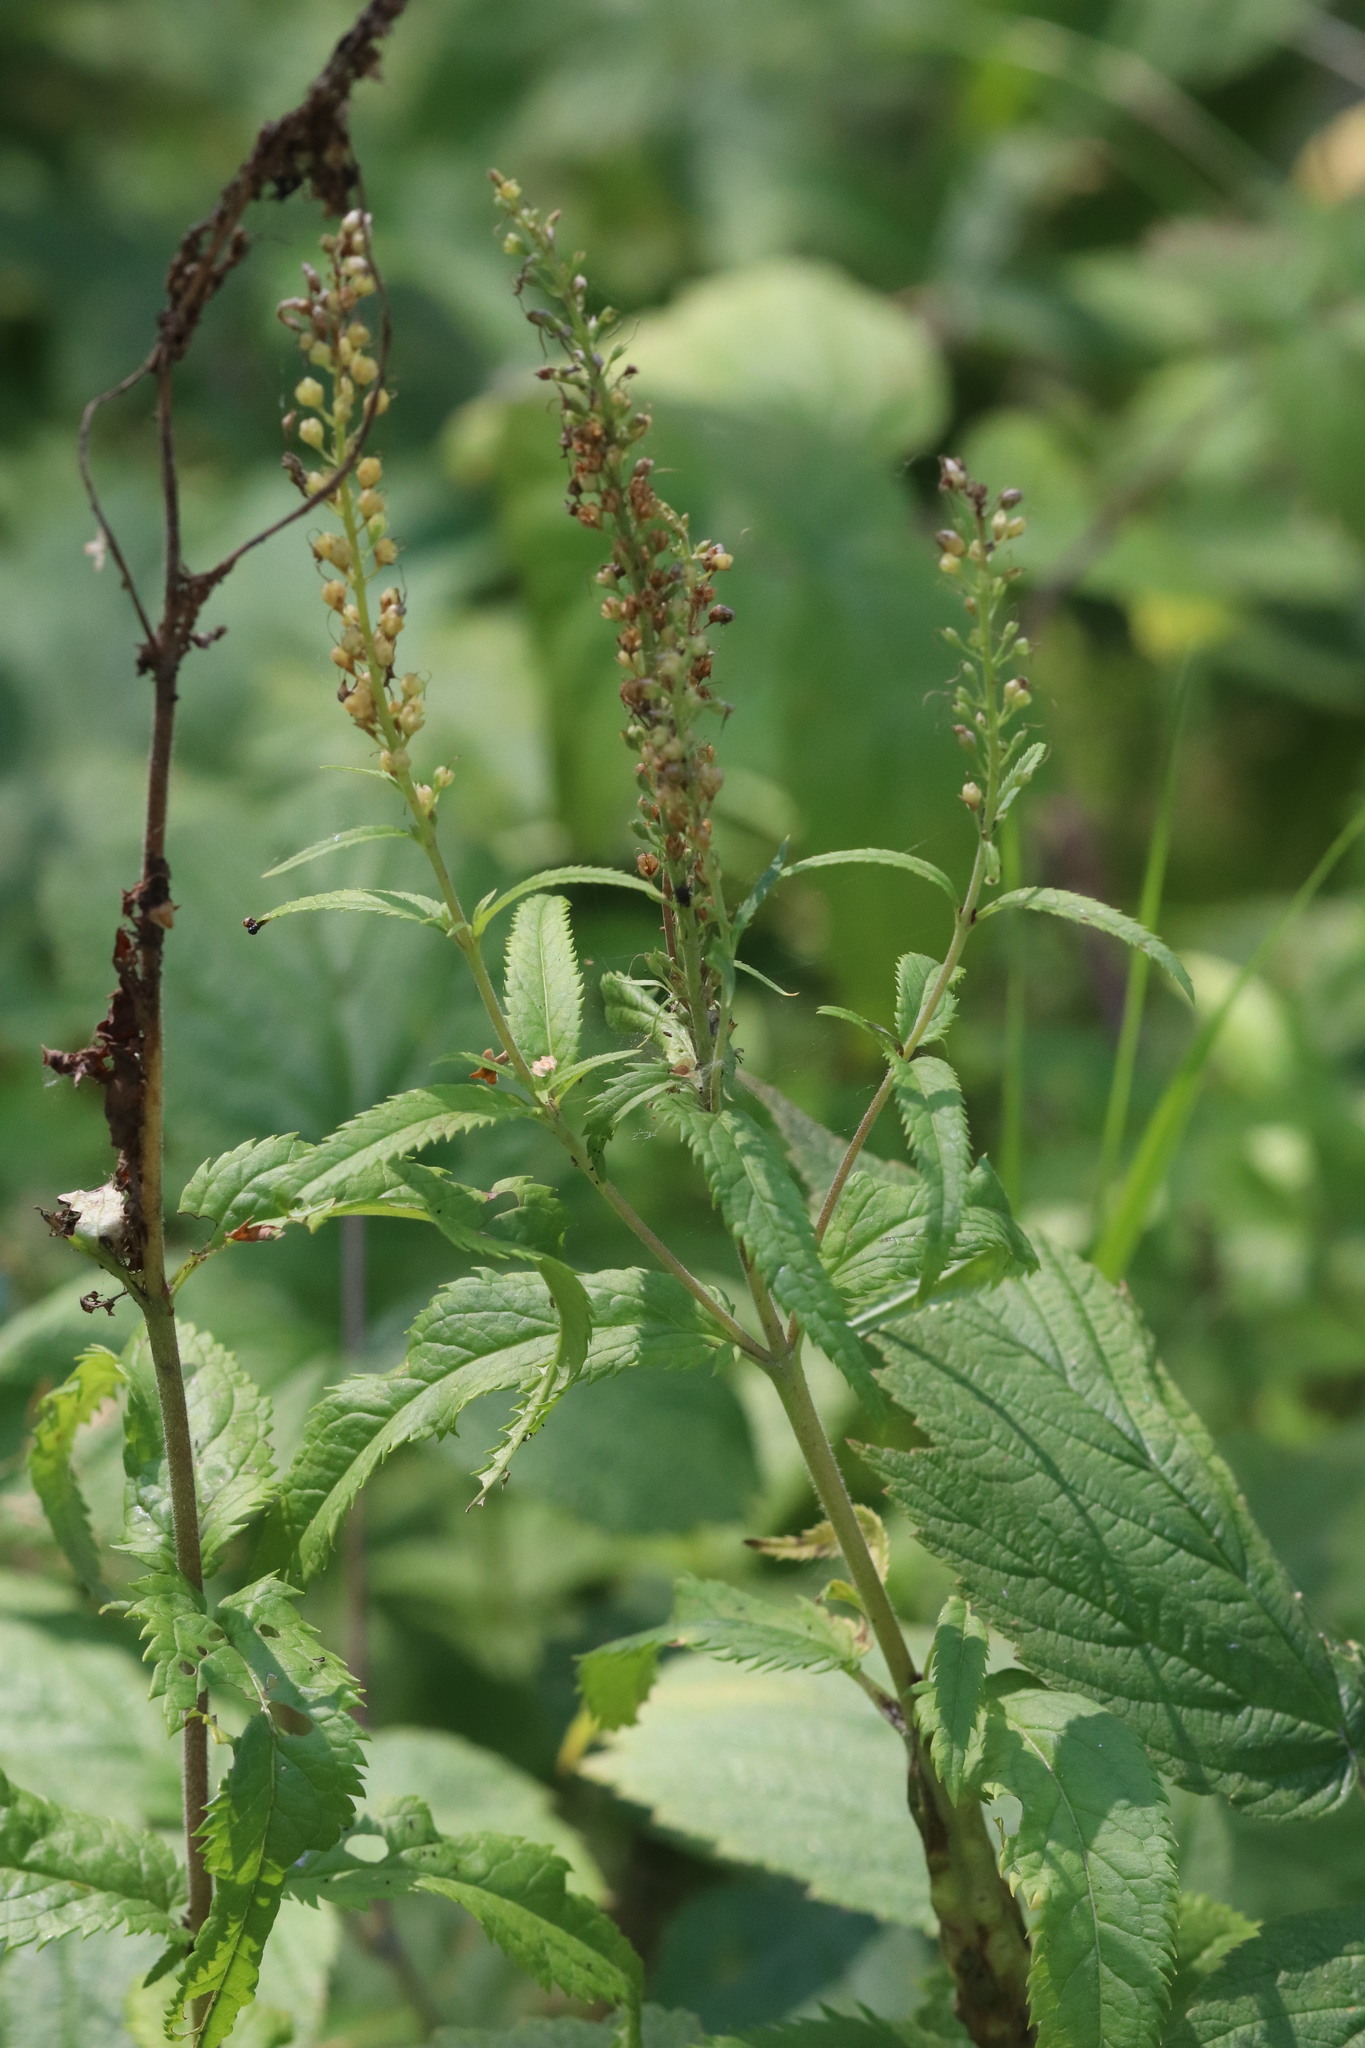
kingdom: Plantae
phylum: Tracheophyta
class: Magnoliopsida
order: Lamiales
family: Plantaginaceae
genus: Veronica
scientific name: Veronica longifolia
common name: Garden speedwell
